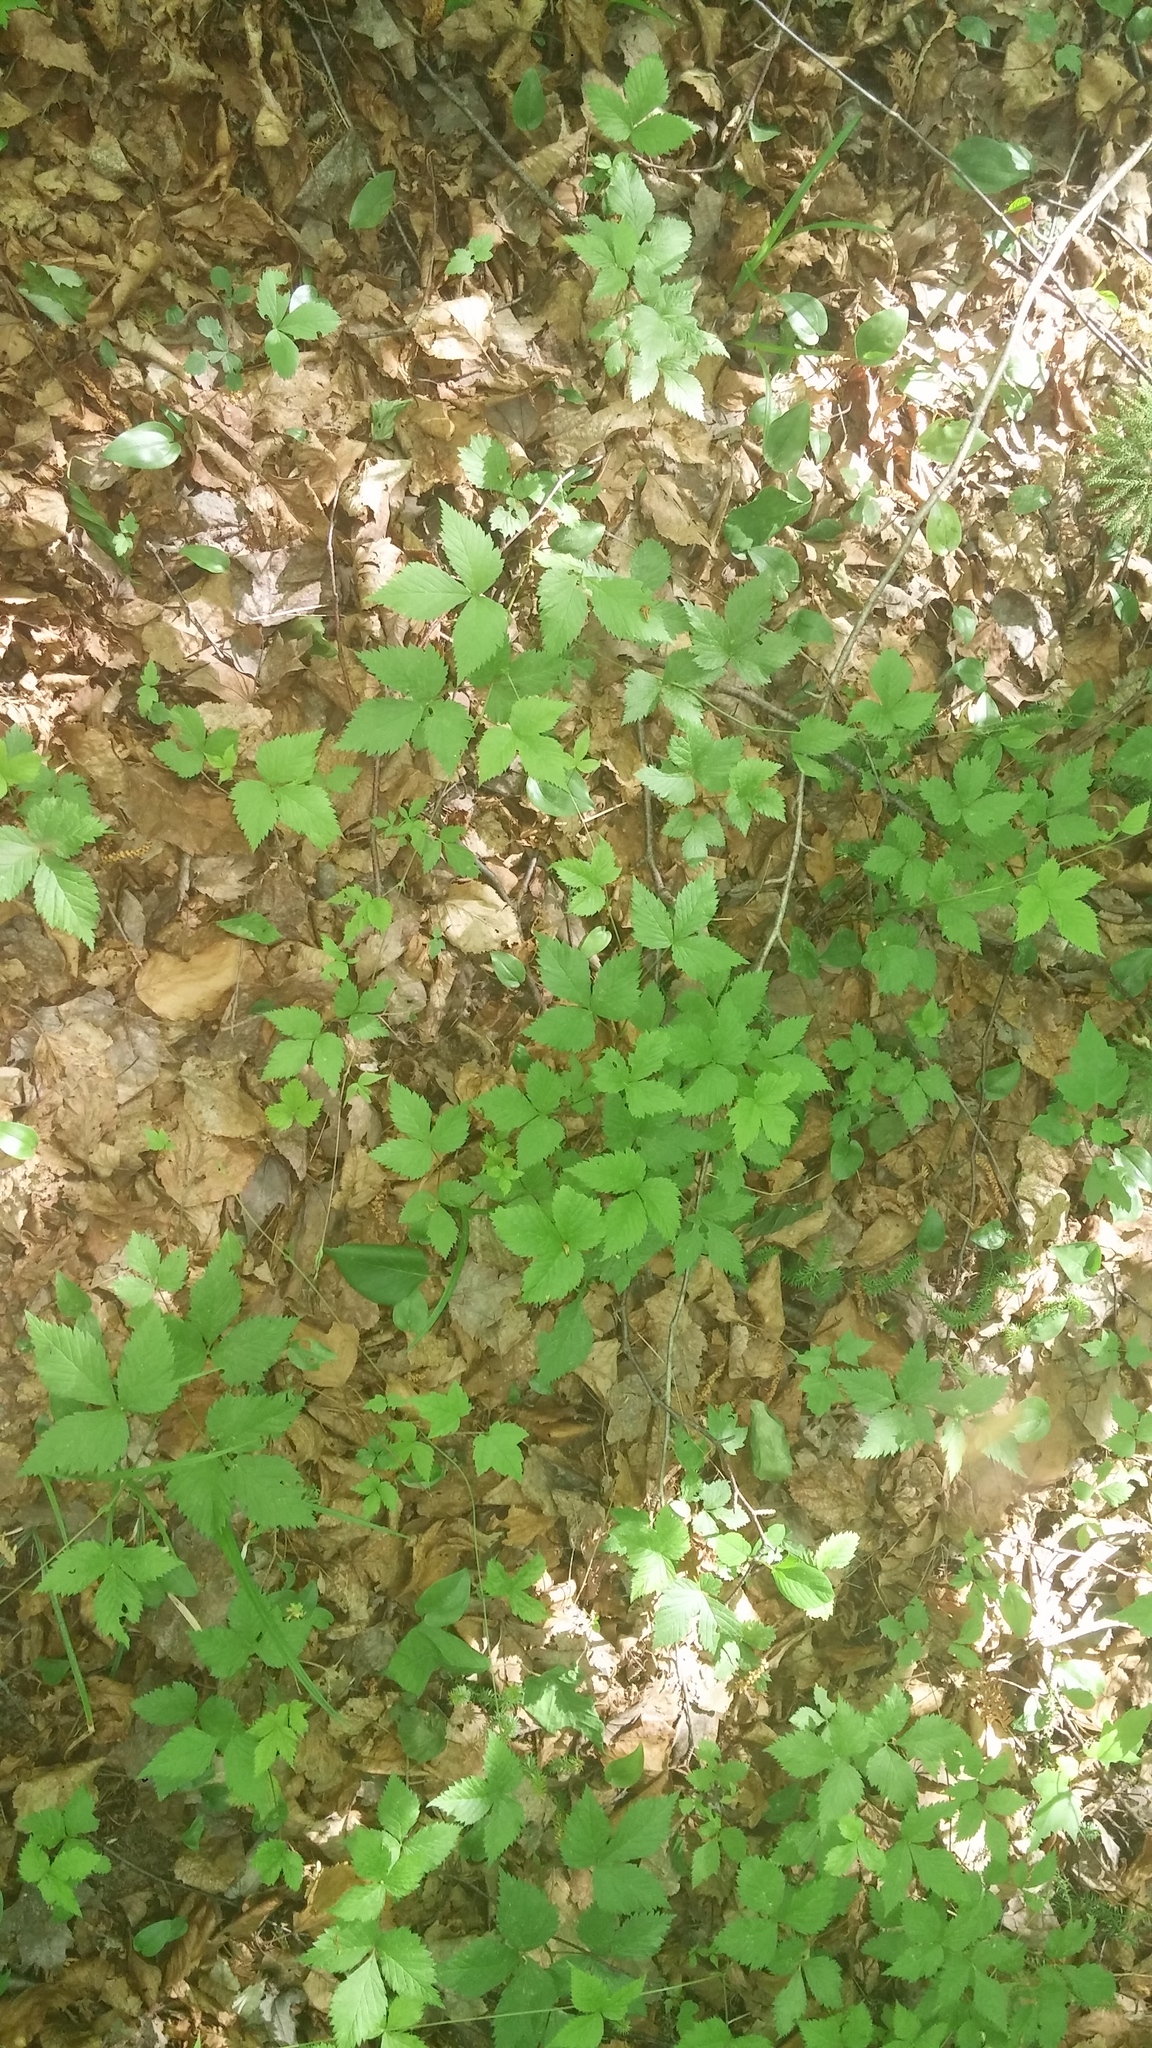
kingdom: Plantae
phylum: Tracheophyta
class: Magnoliopsida
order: Rosales
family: Rosaceae
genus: Rubus
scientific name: Rubus pubescens
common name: Dwarf raspberry
